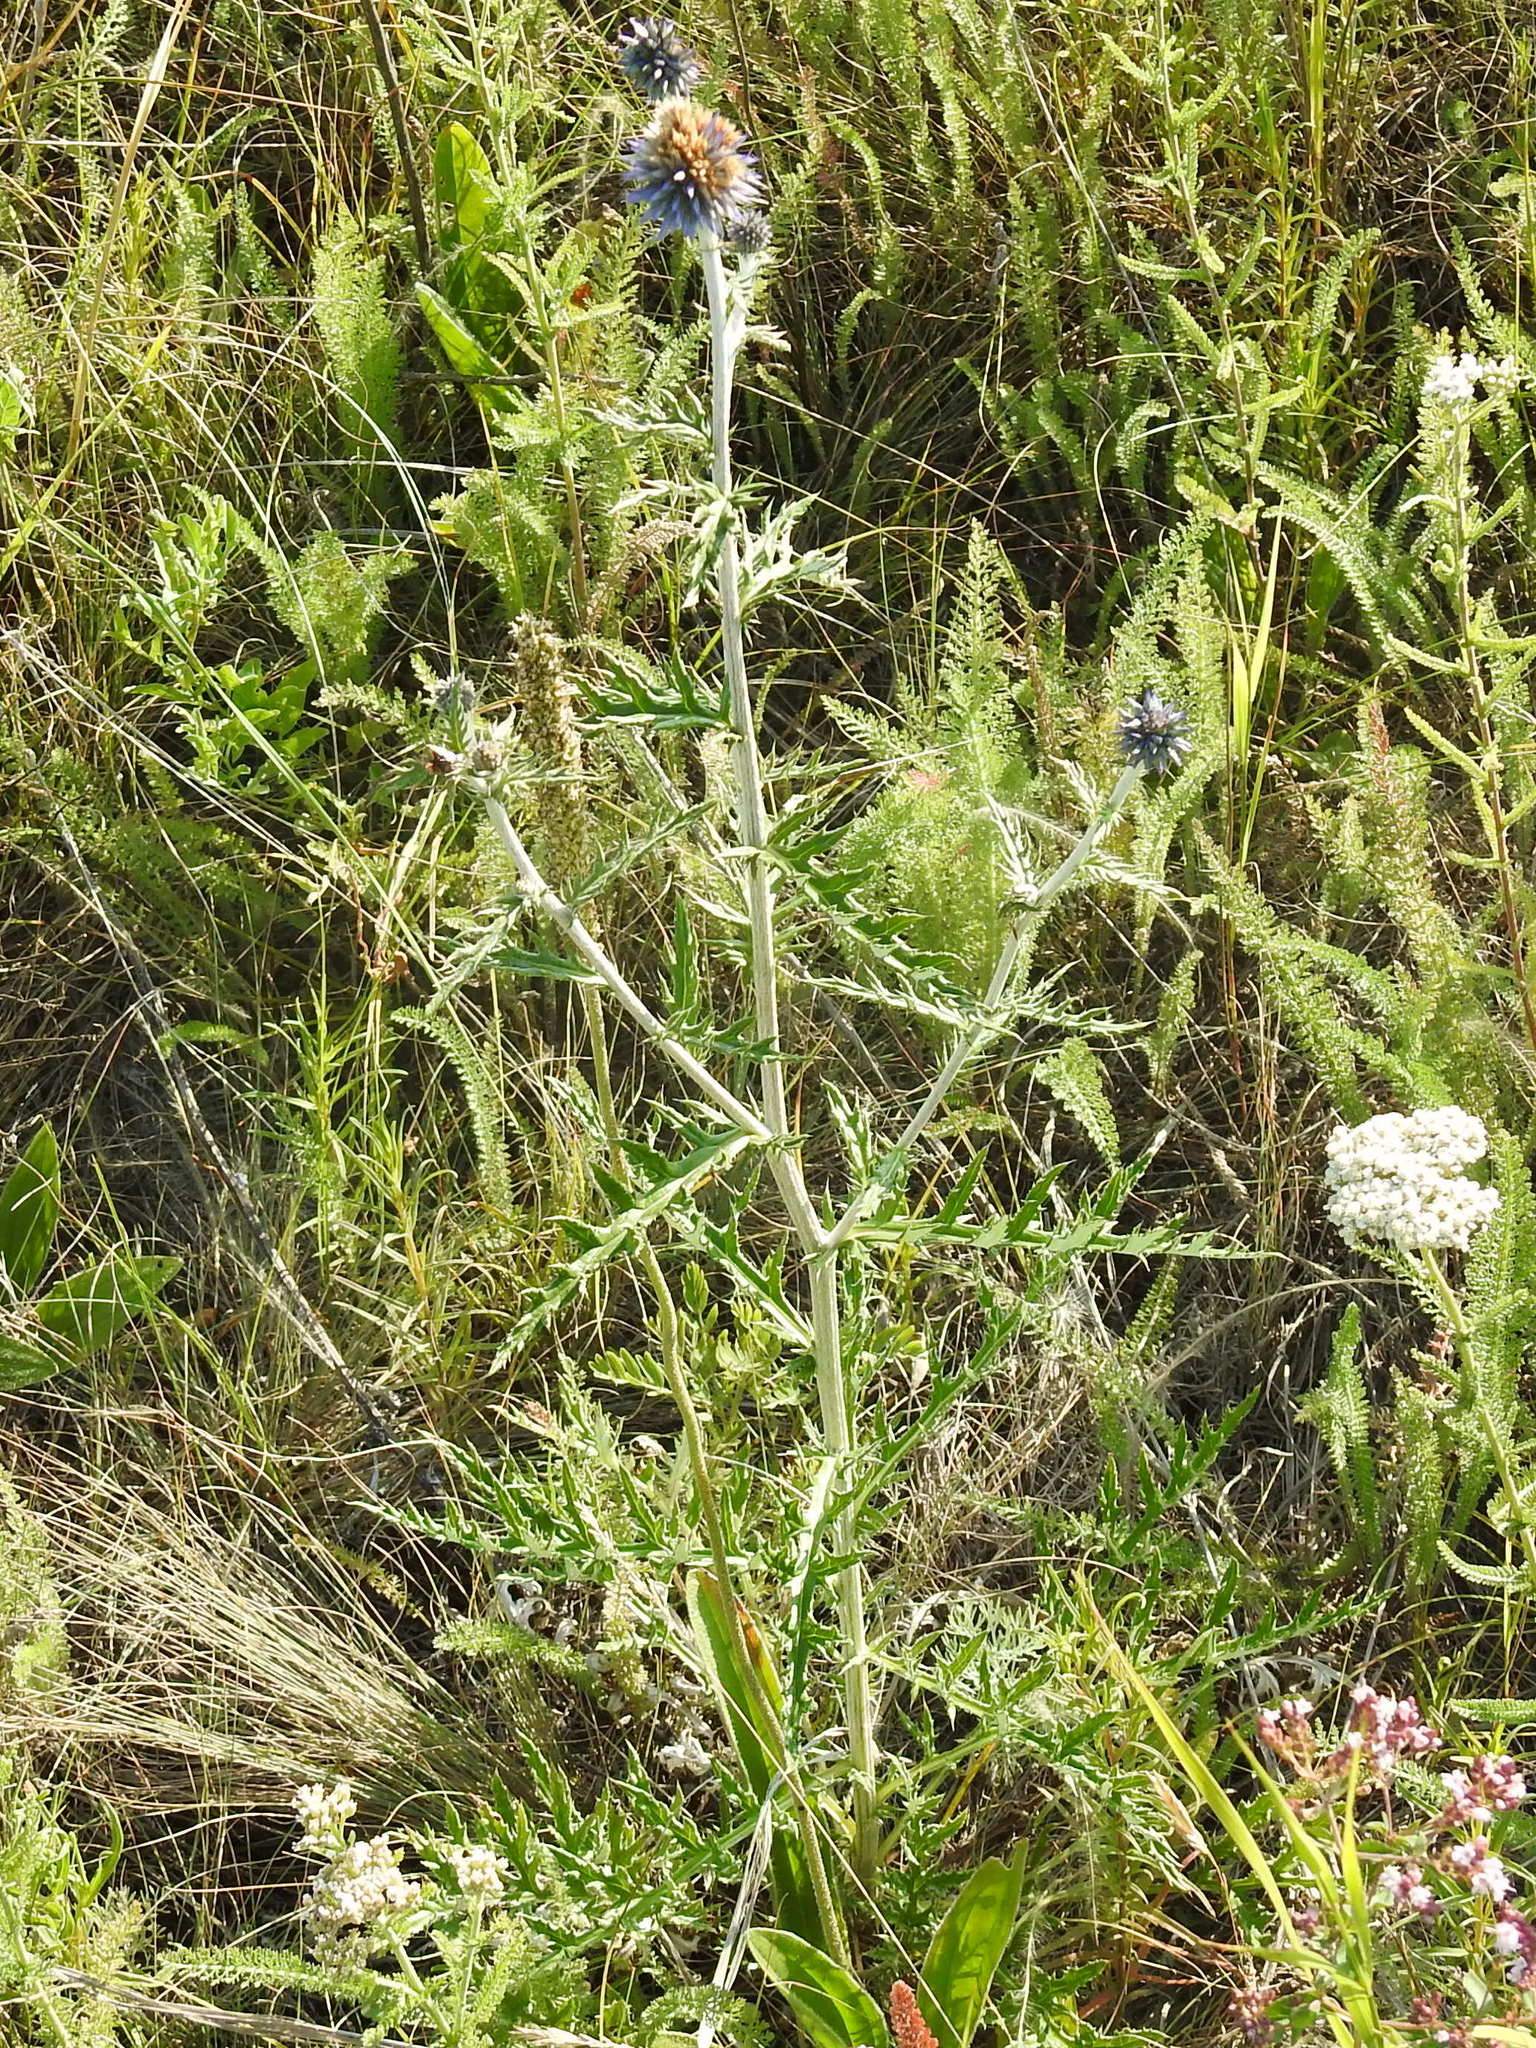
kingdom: Plantae
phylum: Tracheophyta
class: Magnoliopsida
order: Asterales
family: Asteraceae
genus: Echinops
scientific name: Echinops ritro
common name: Globe thistle
